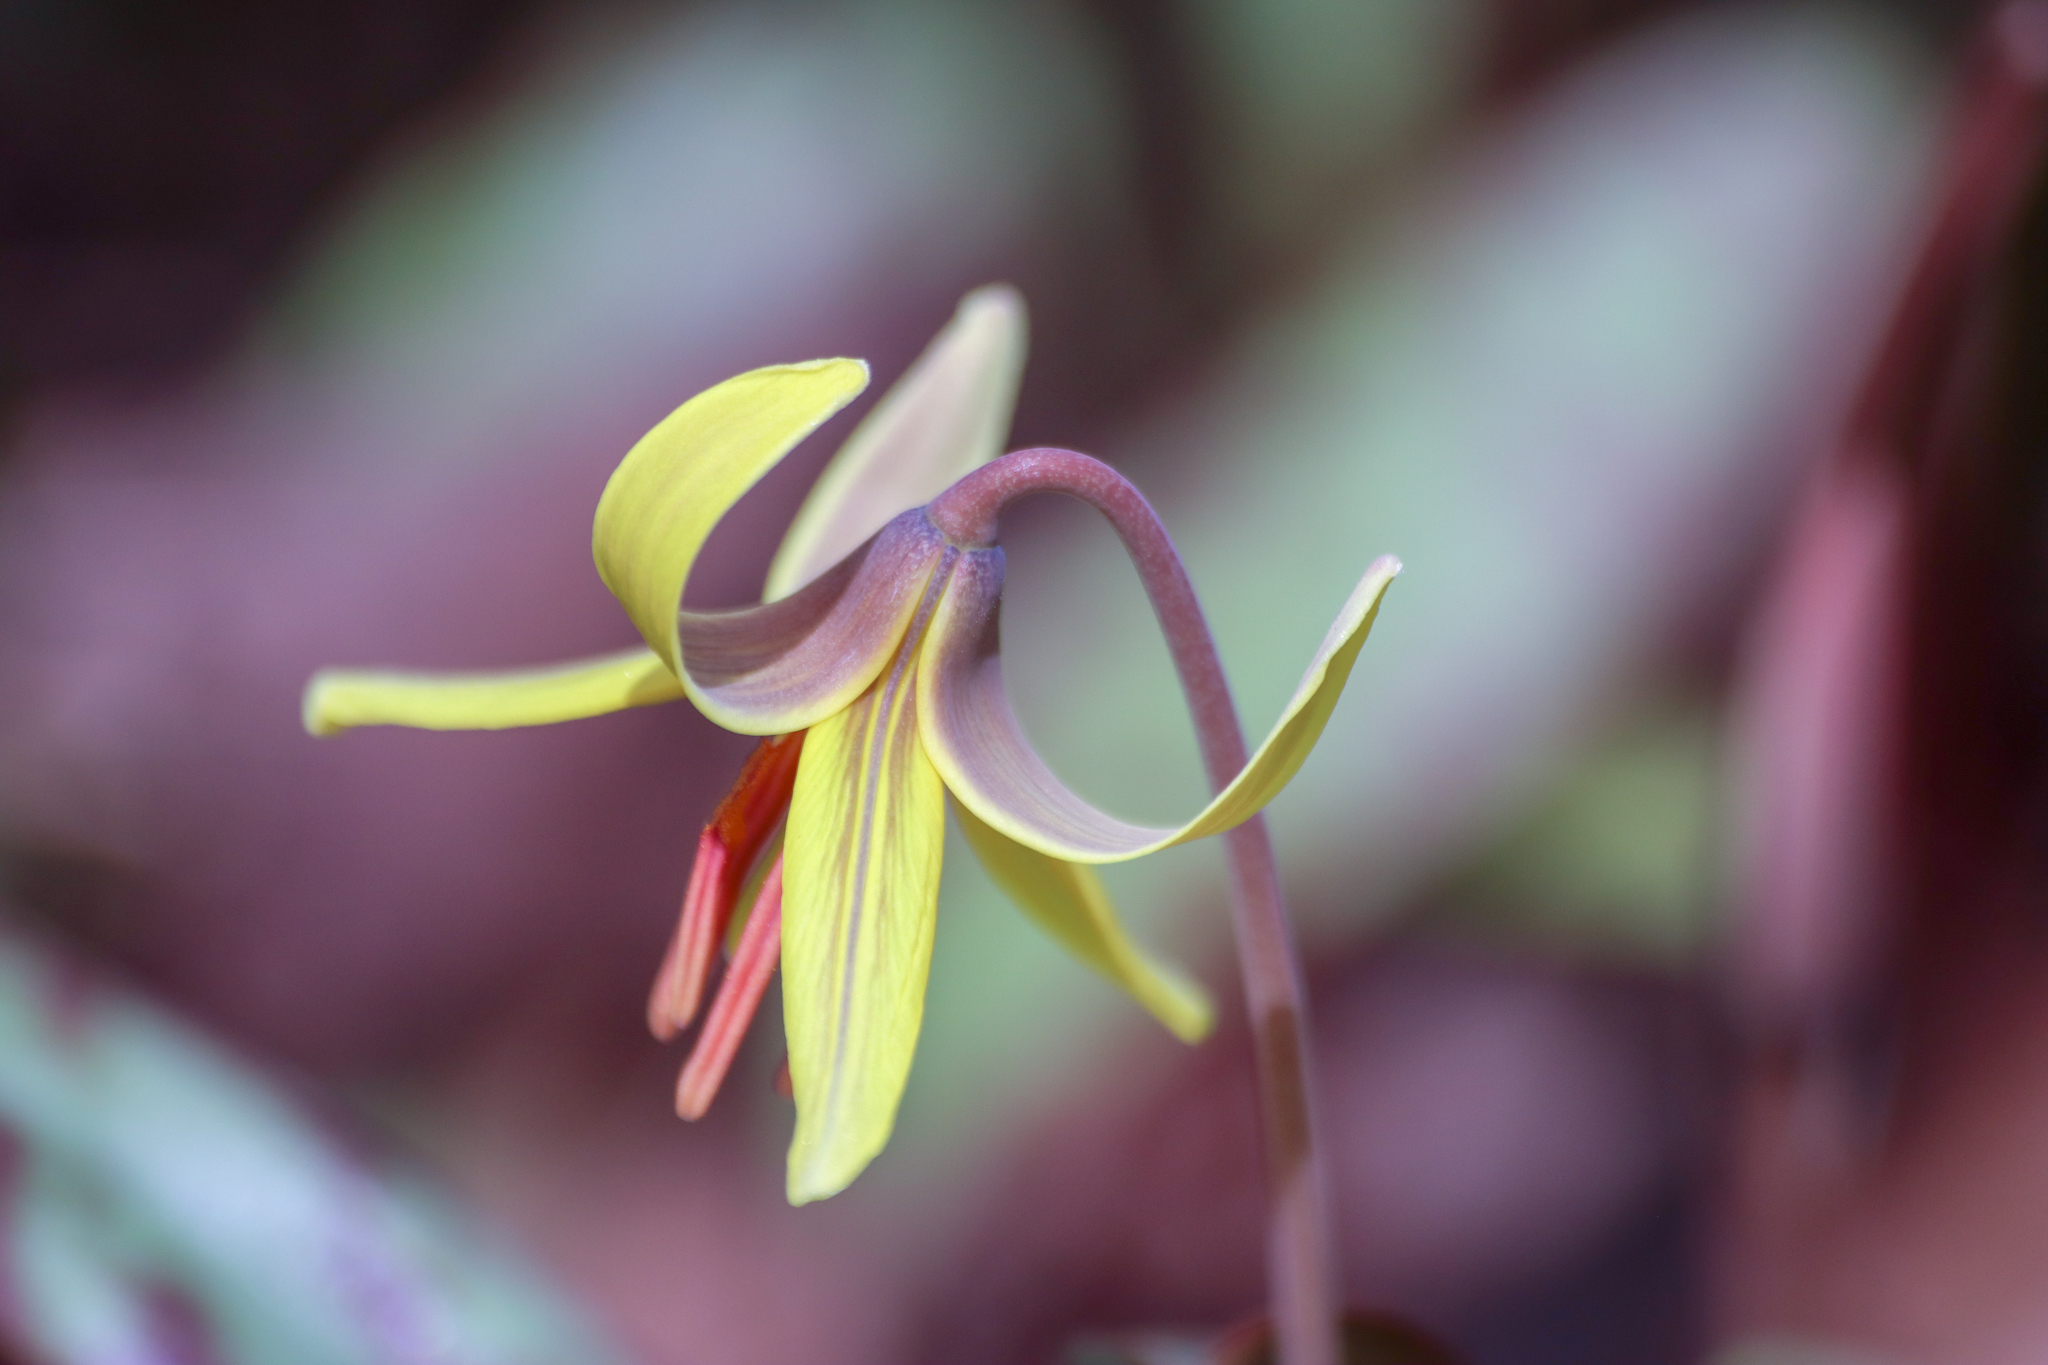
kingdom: Plantae
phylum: Tracheophyta
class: Liliopsida
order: Liliales
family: Liliaceae
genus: Erythronium
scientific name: Erythronium americanum
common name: Yellow adder's-tongue
